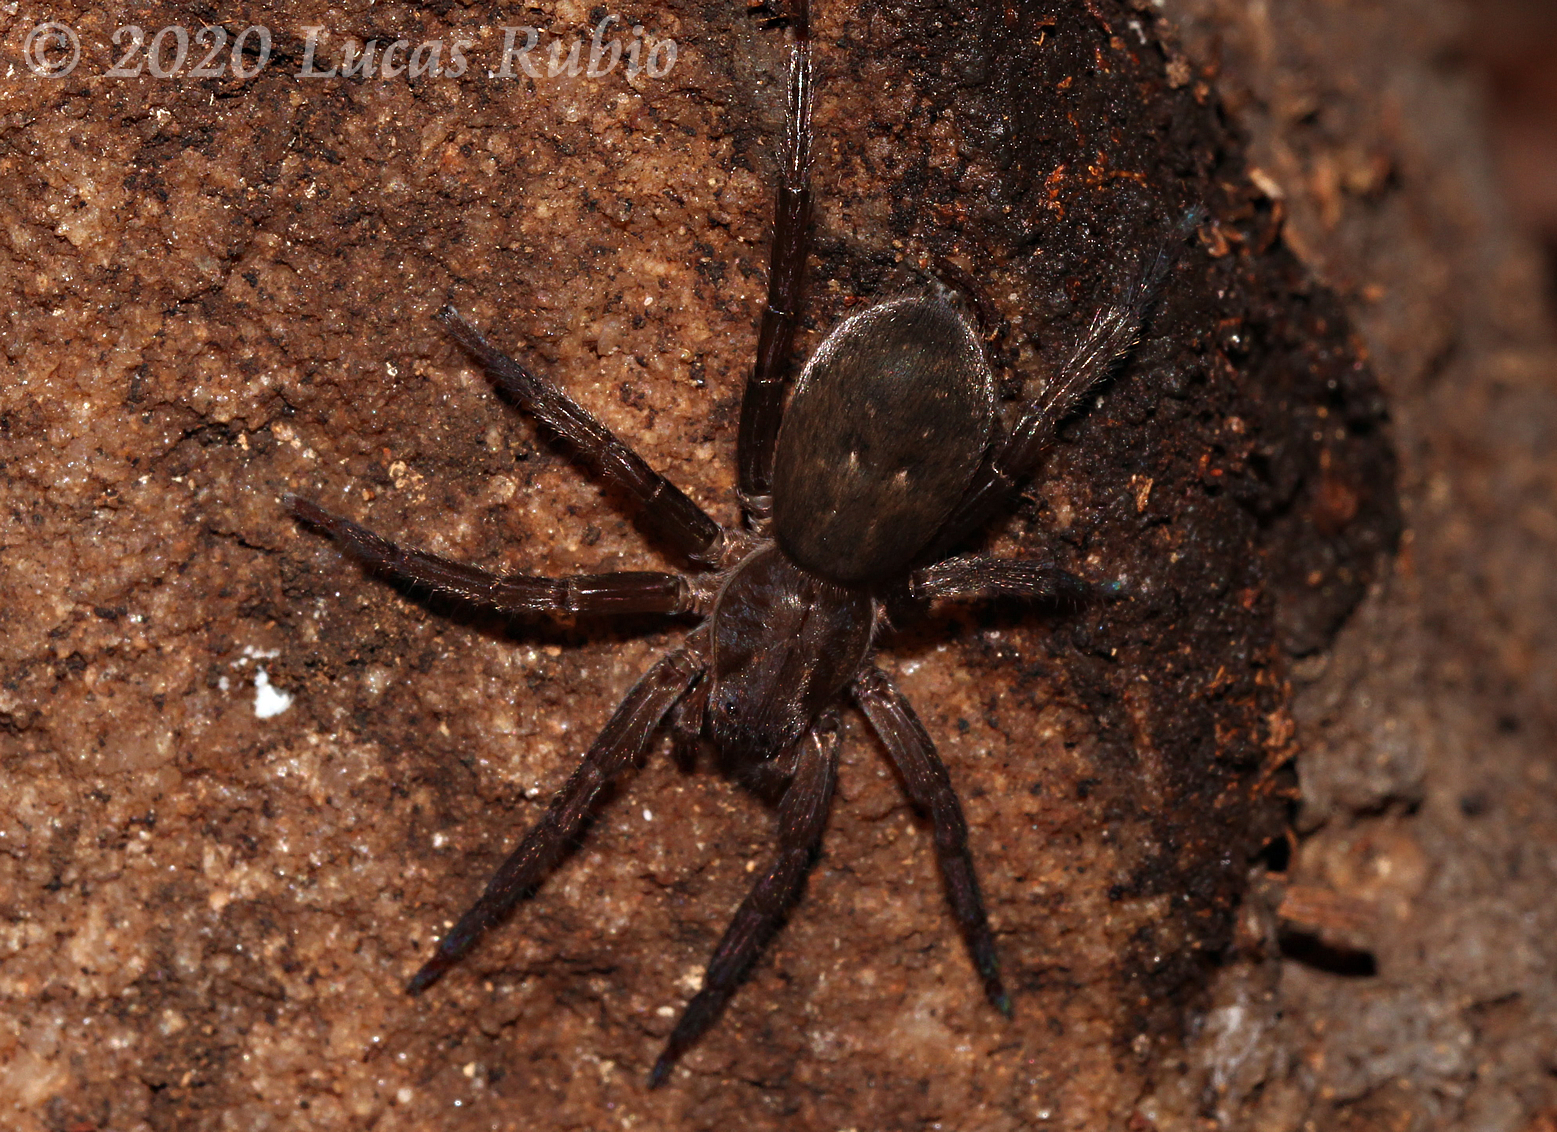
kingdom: Animalia
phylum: Arthropoda
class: Arachnida
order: Araneae
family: Ctenidae
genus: Asthenoctenus
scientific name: Asthenoctenus borellii
